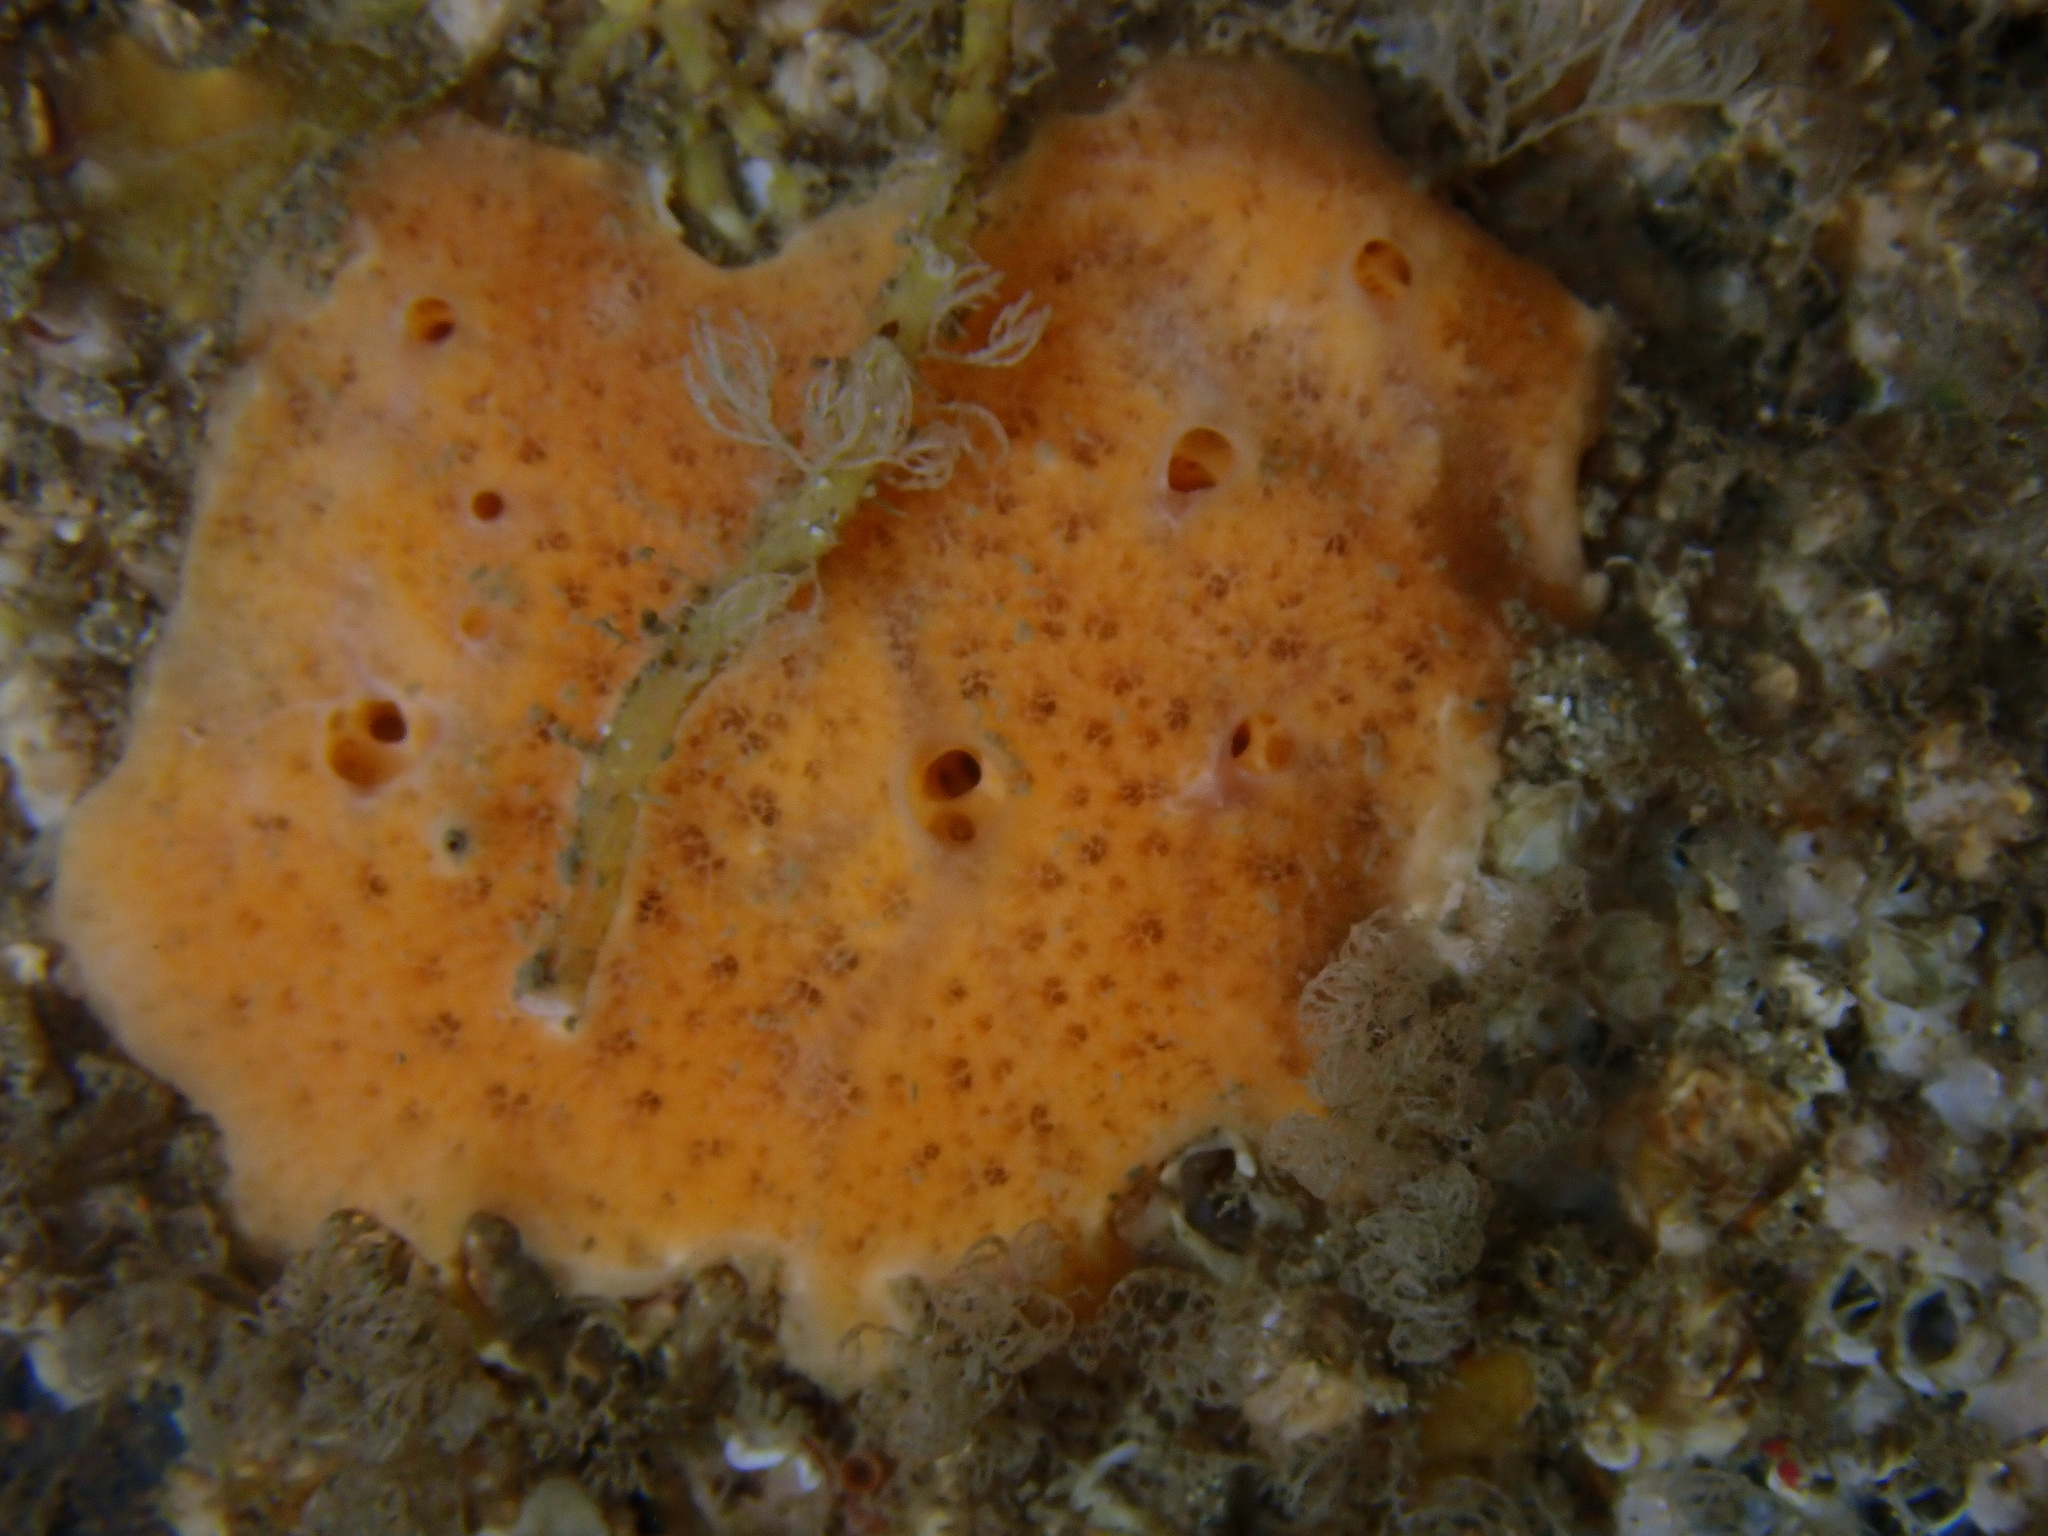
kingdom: Animalia
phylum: Porifera
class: Demospongiae
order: Poecilosclerida
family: Myxillidae
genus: Myxilla
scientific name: Myxilla fimbriata
